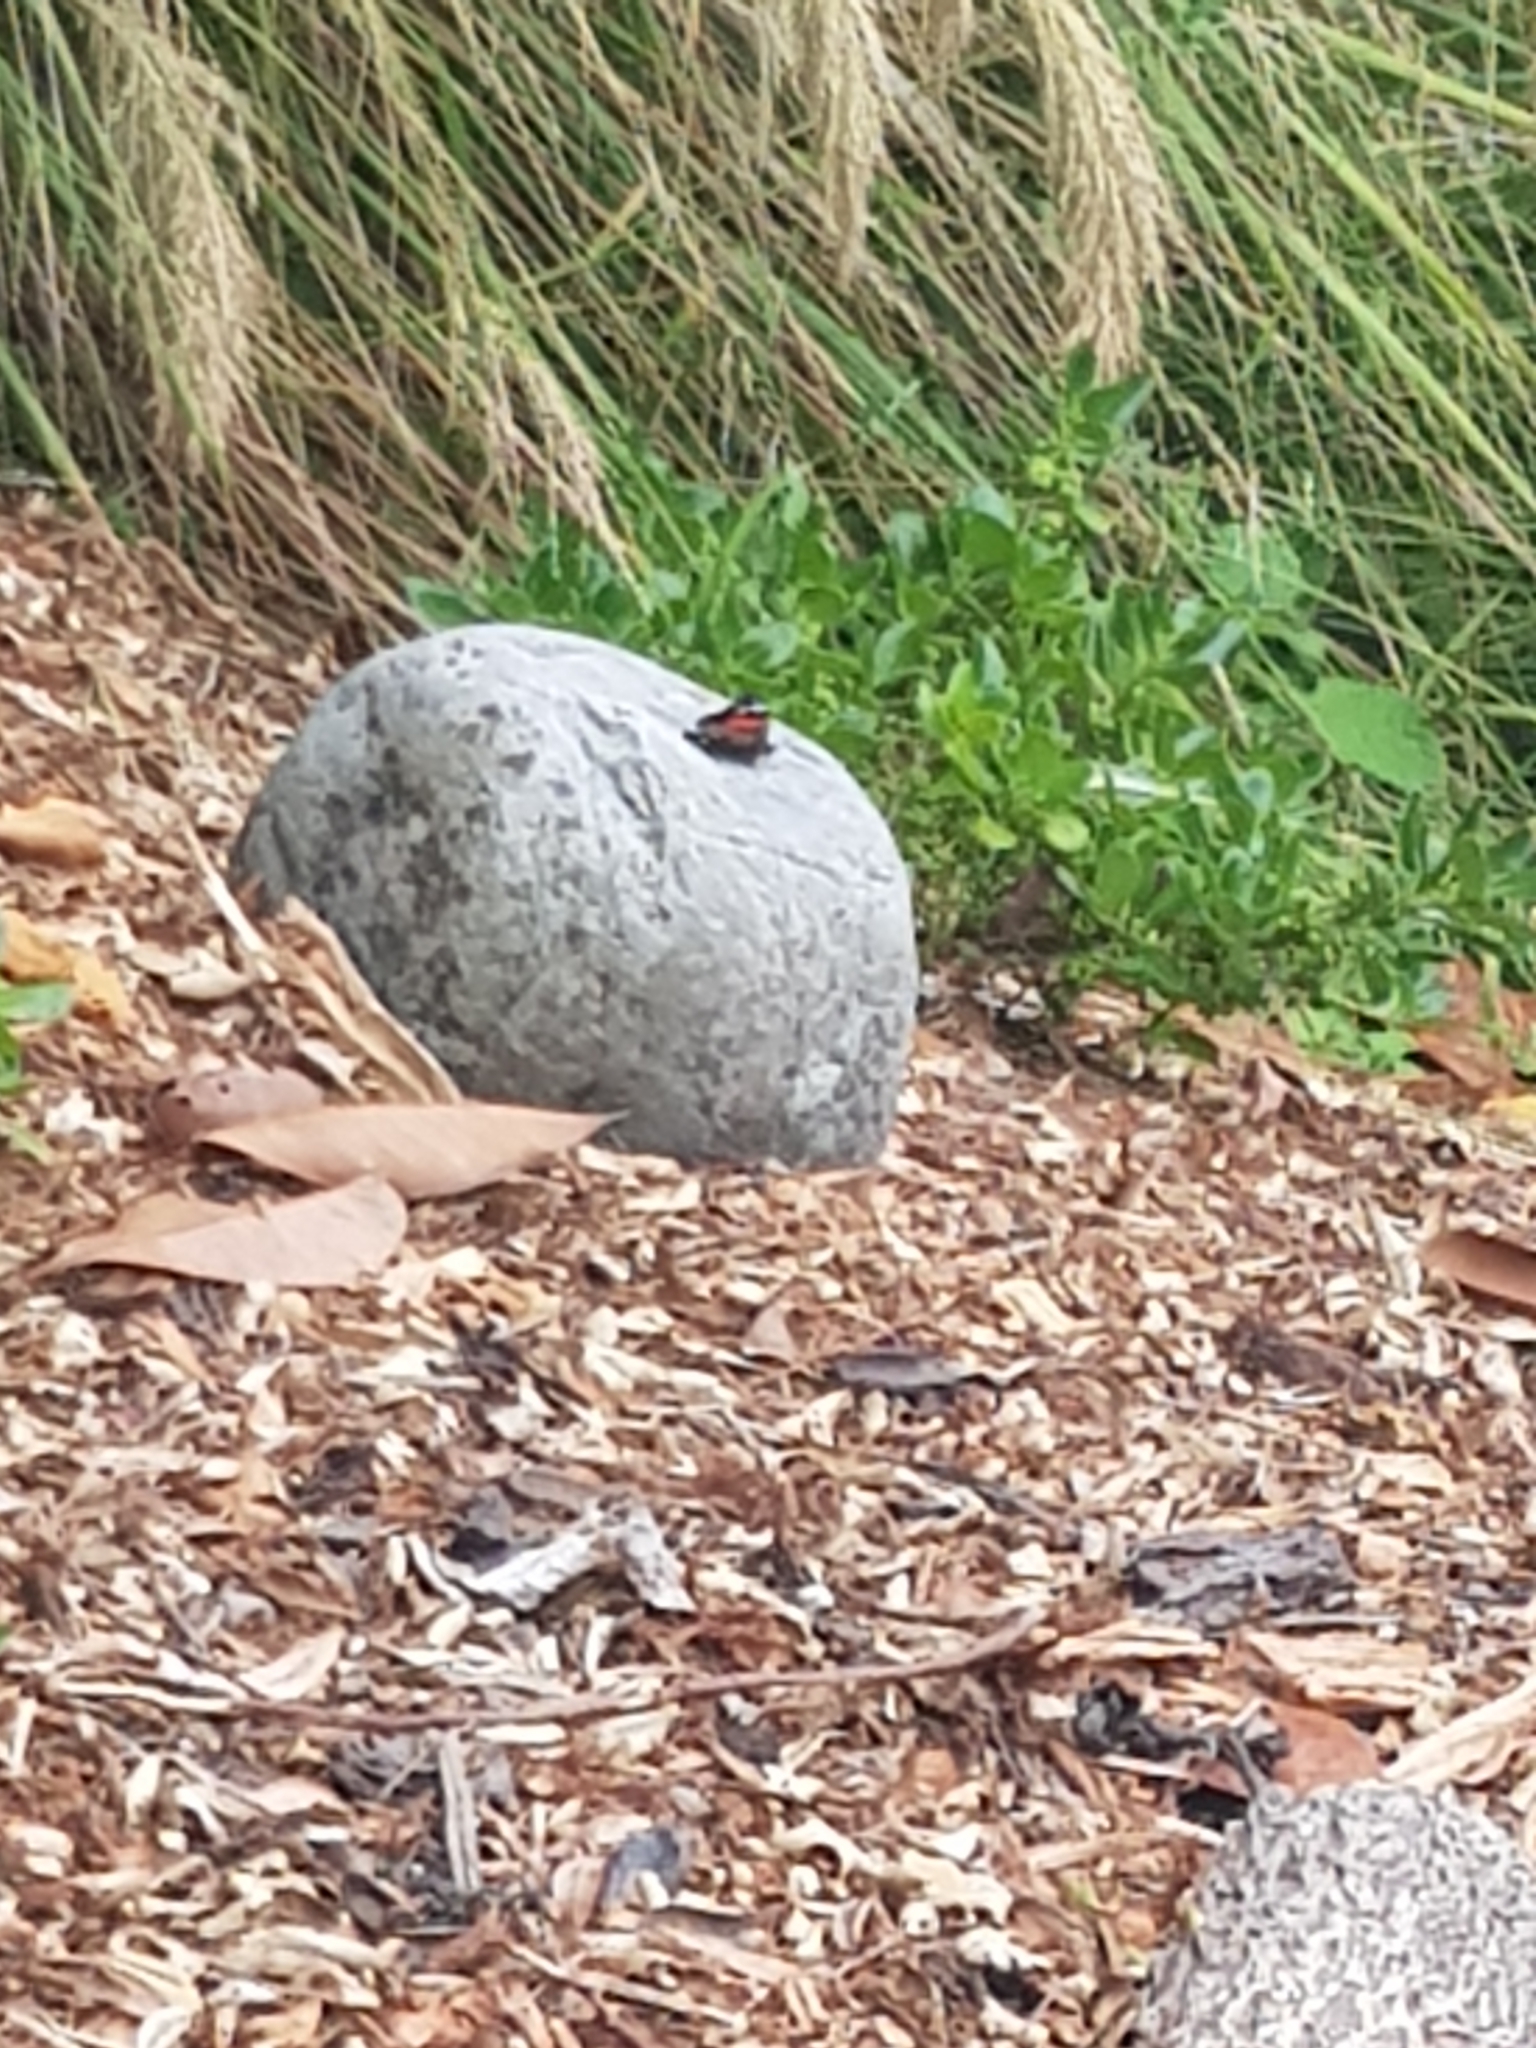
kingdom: Animalia
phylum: Arthropoda
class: Insecta
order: Lepidoptera
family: Nymphalidae
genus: Vanessa
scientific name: Vanessa gonerilla
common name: New zealand red admiral
